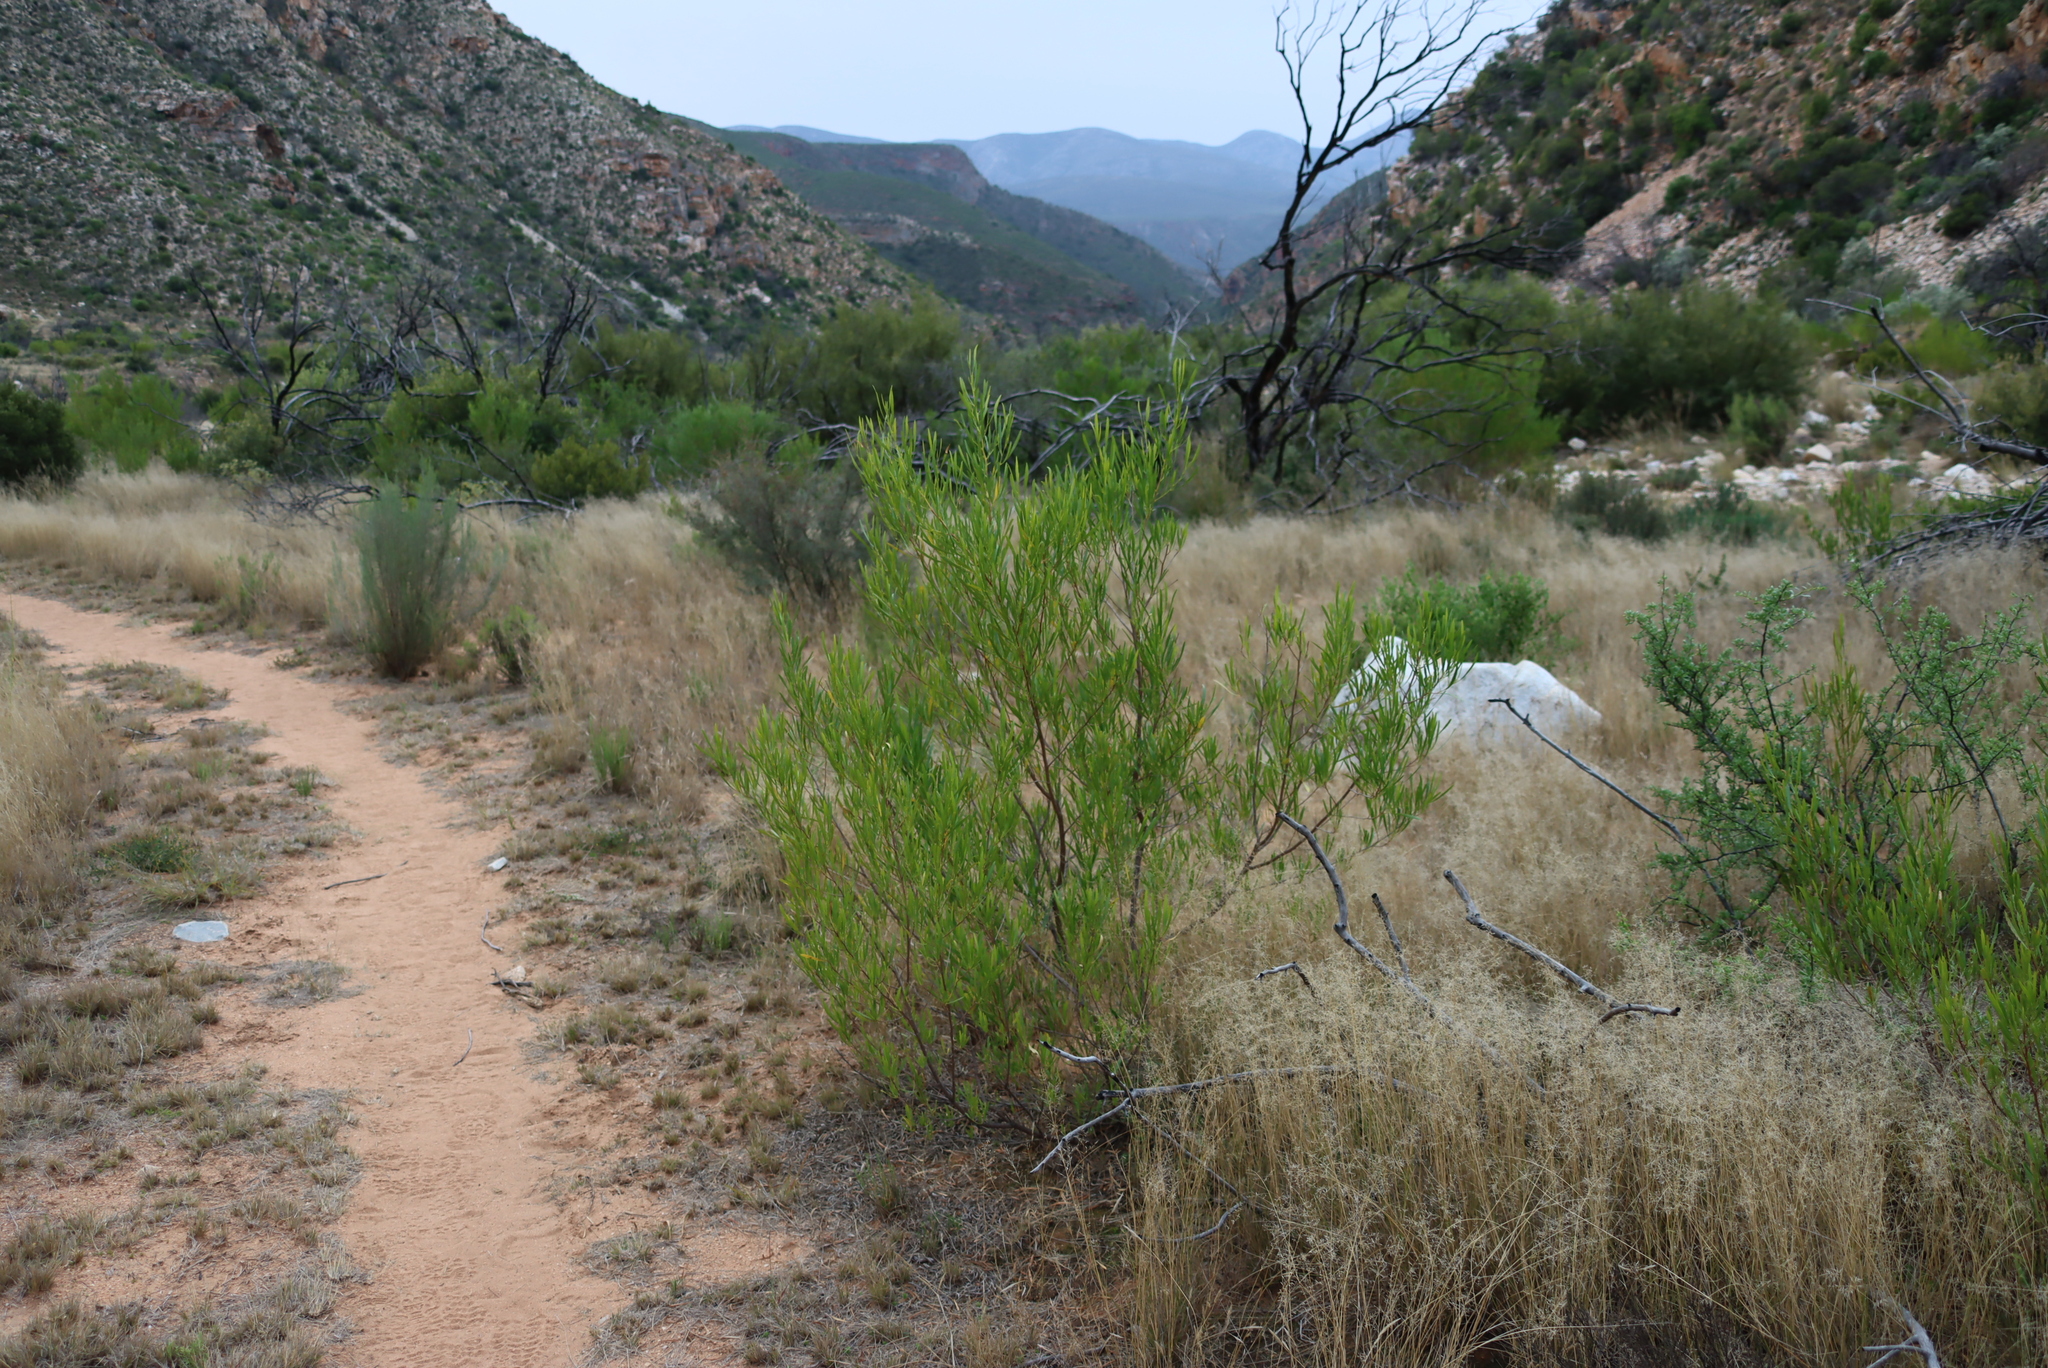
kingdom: Plantae
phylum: Tracheophyta
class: Magnoliopsida
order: Sapindales
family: Sapindaceae
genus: Dodonaea
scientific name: Dodonaea viscosa
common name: Hopbush
